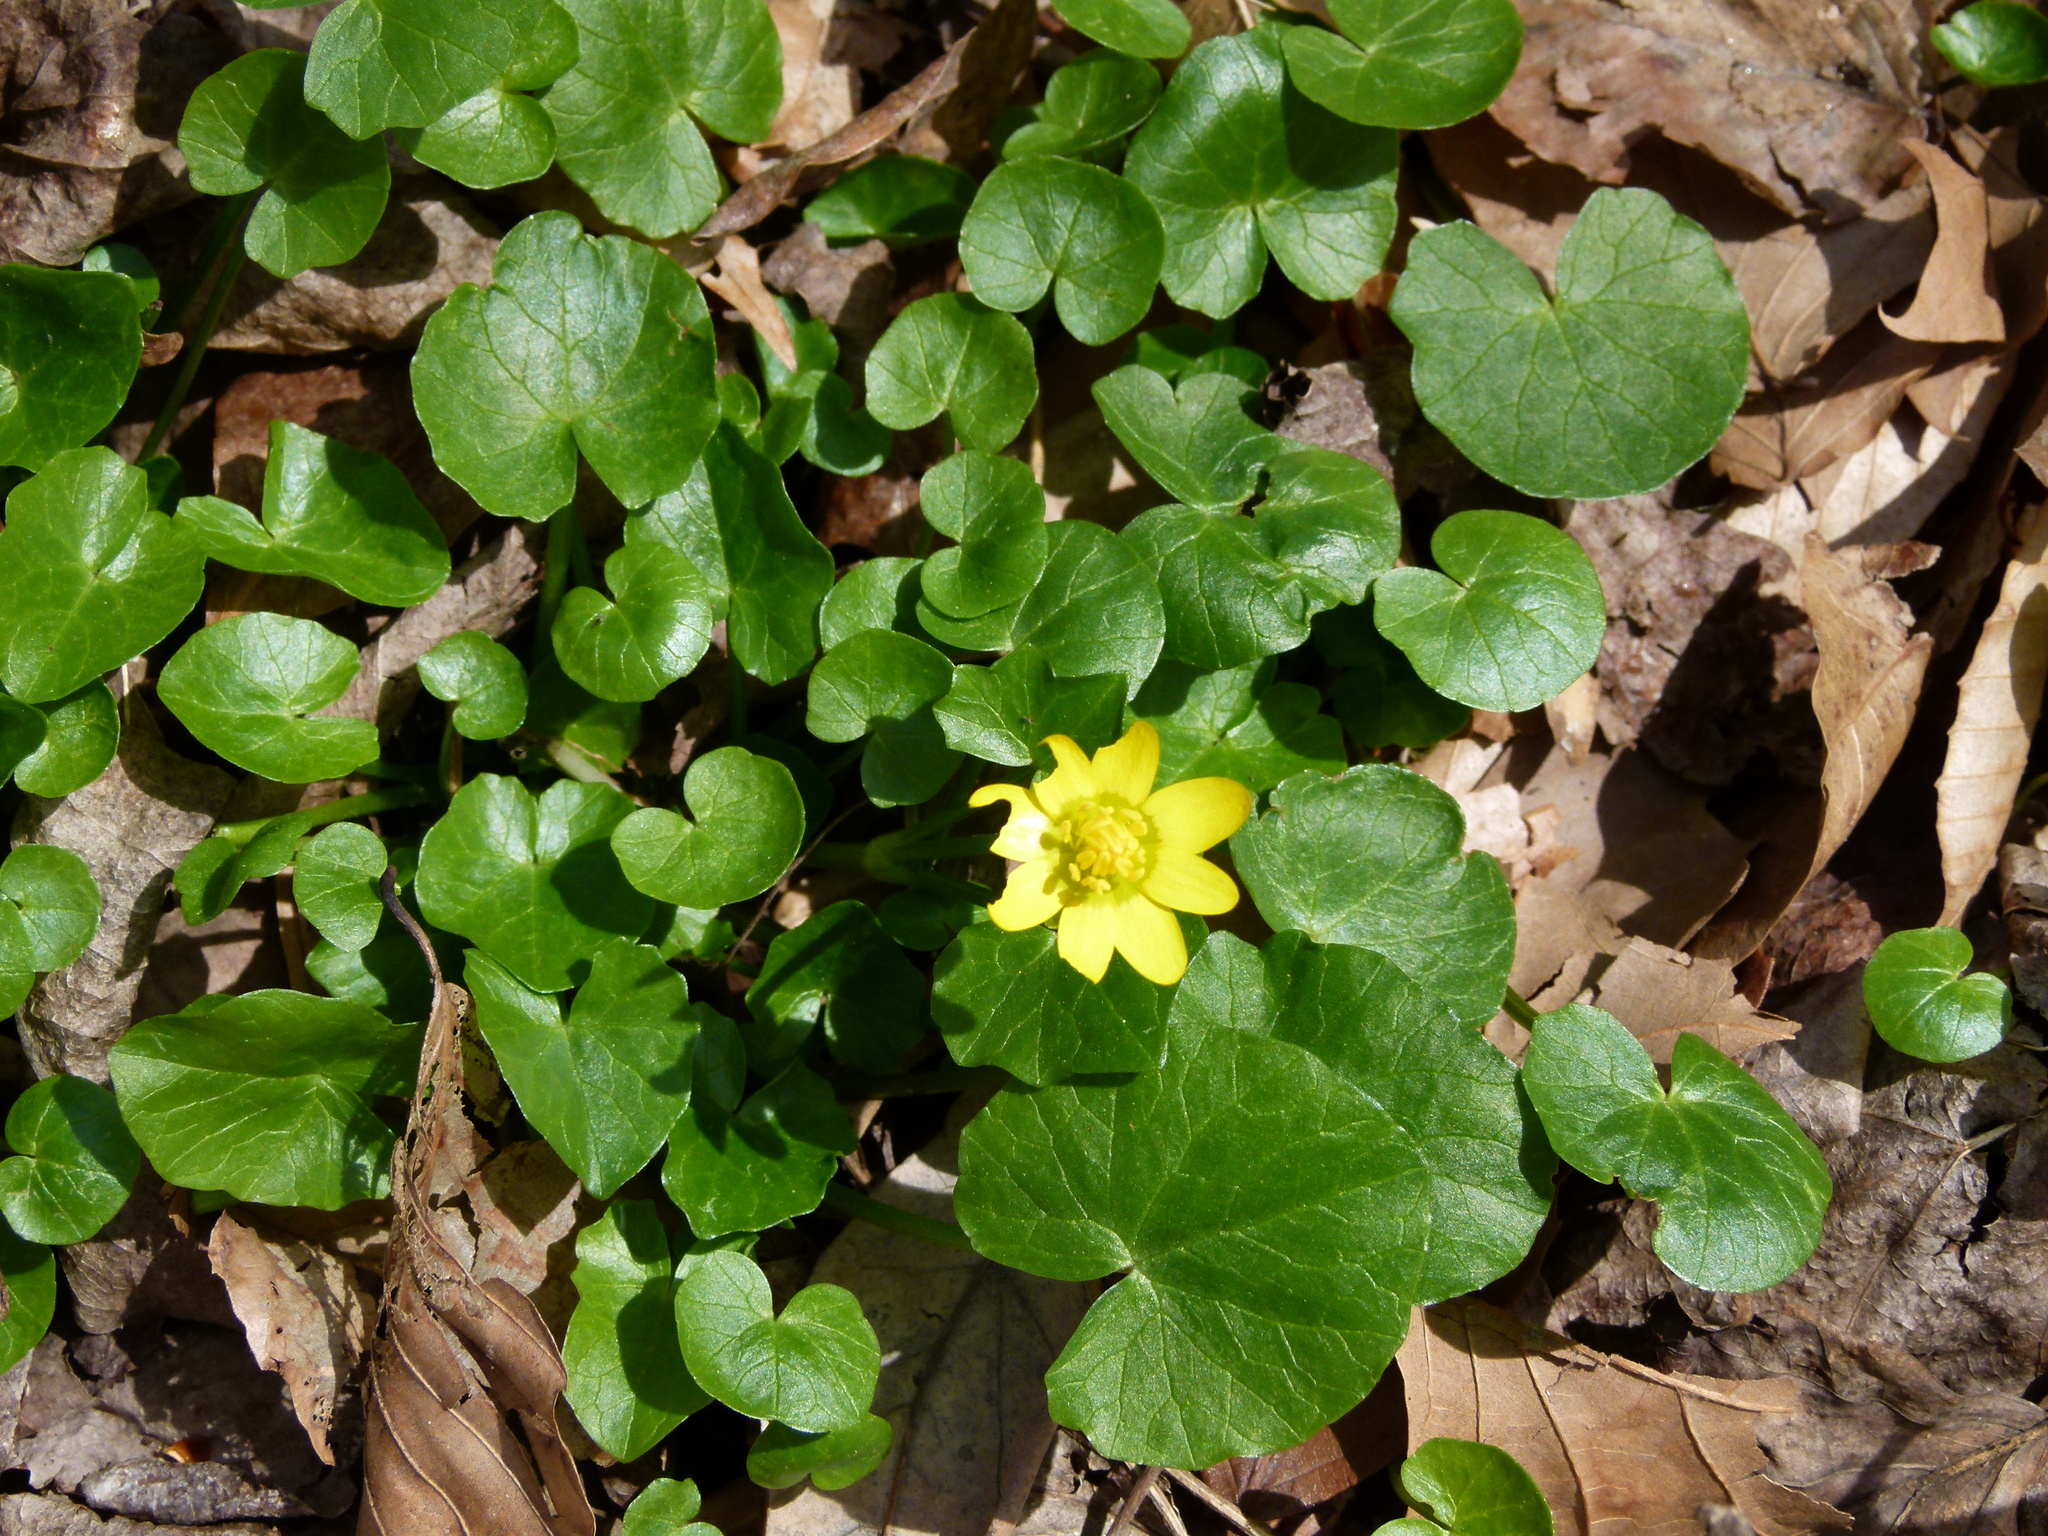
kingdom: Plantae
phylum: Tracheophyta
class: Magnoliopsida
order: Ranunculales
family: Ranunculaceae
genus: Ficaria
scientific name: Ficaria verna
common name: Lesser celandine
